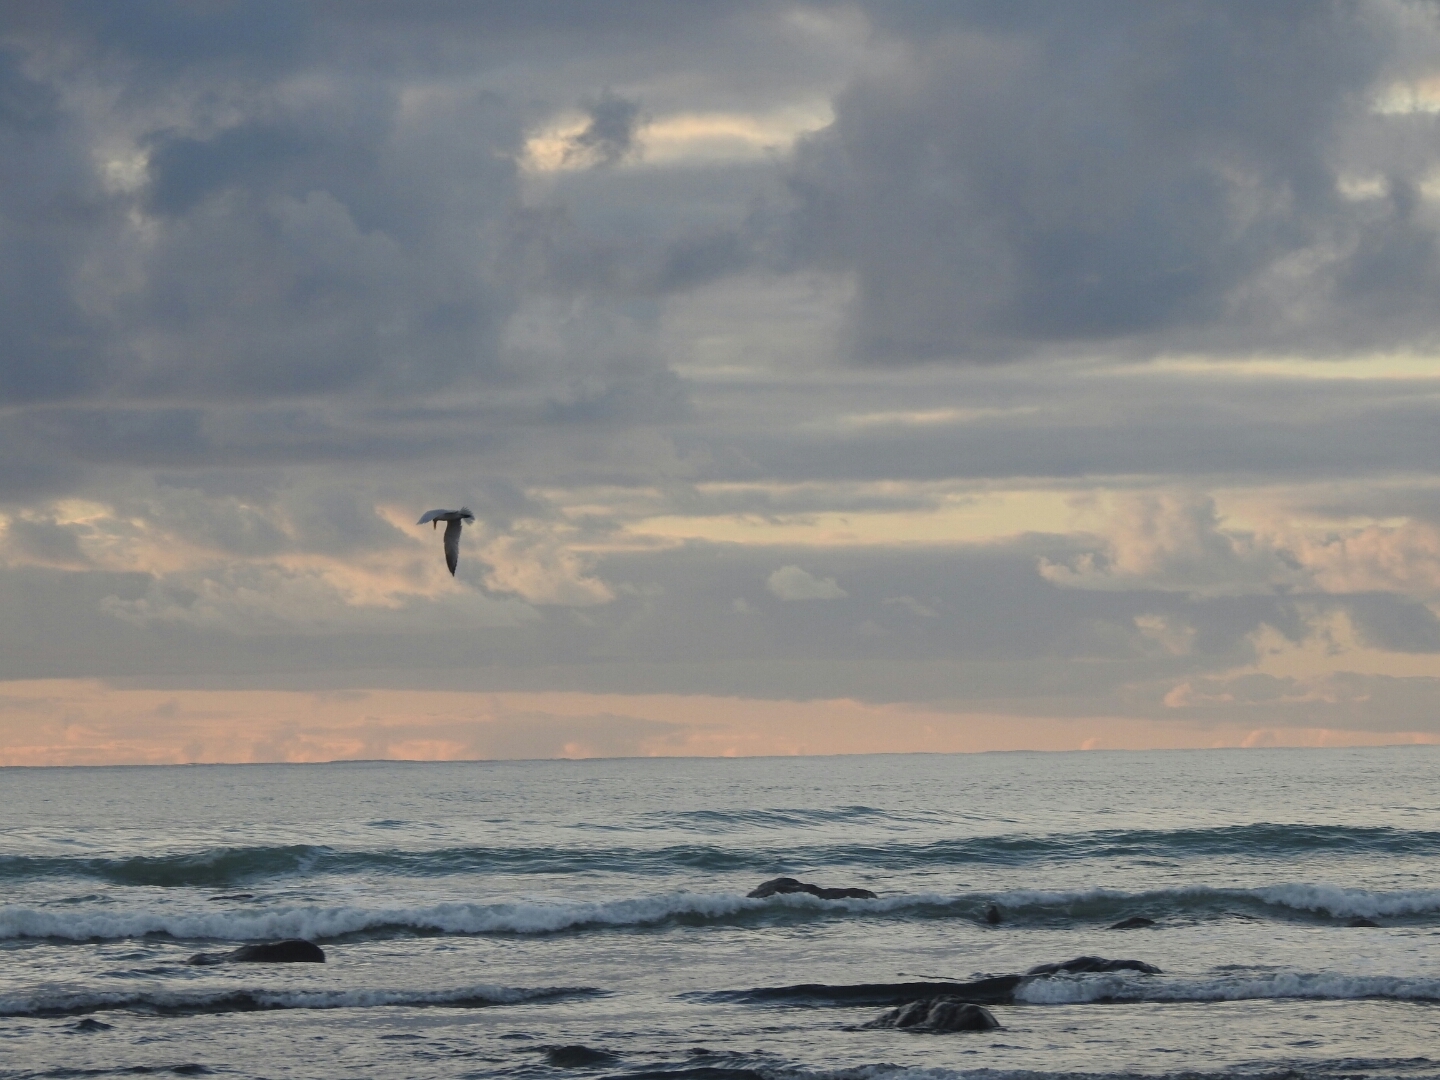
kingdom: Animalia
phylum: Chordata
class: Aves
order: Charadriiformes
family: Laridae
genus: Hydroprogne
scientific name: Hydroprogne caspia
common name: Caspian tern
